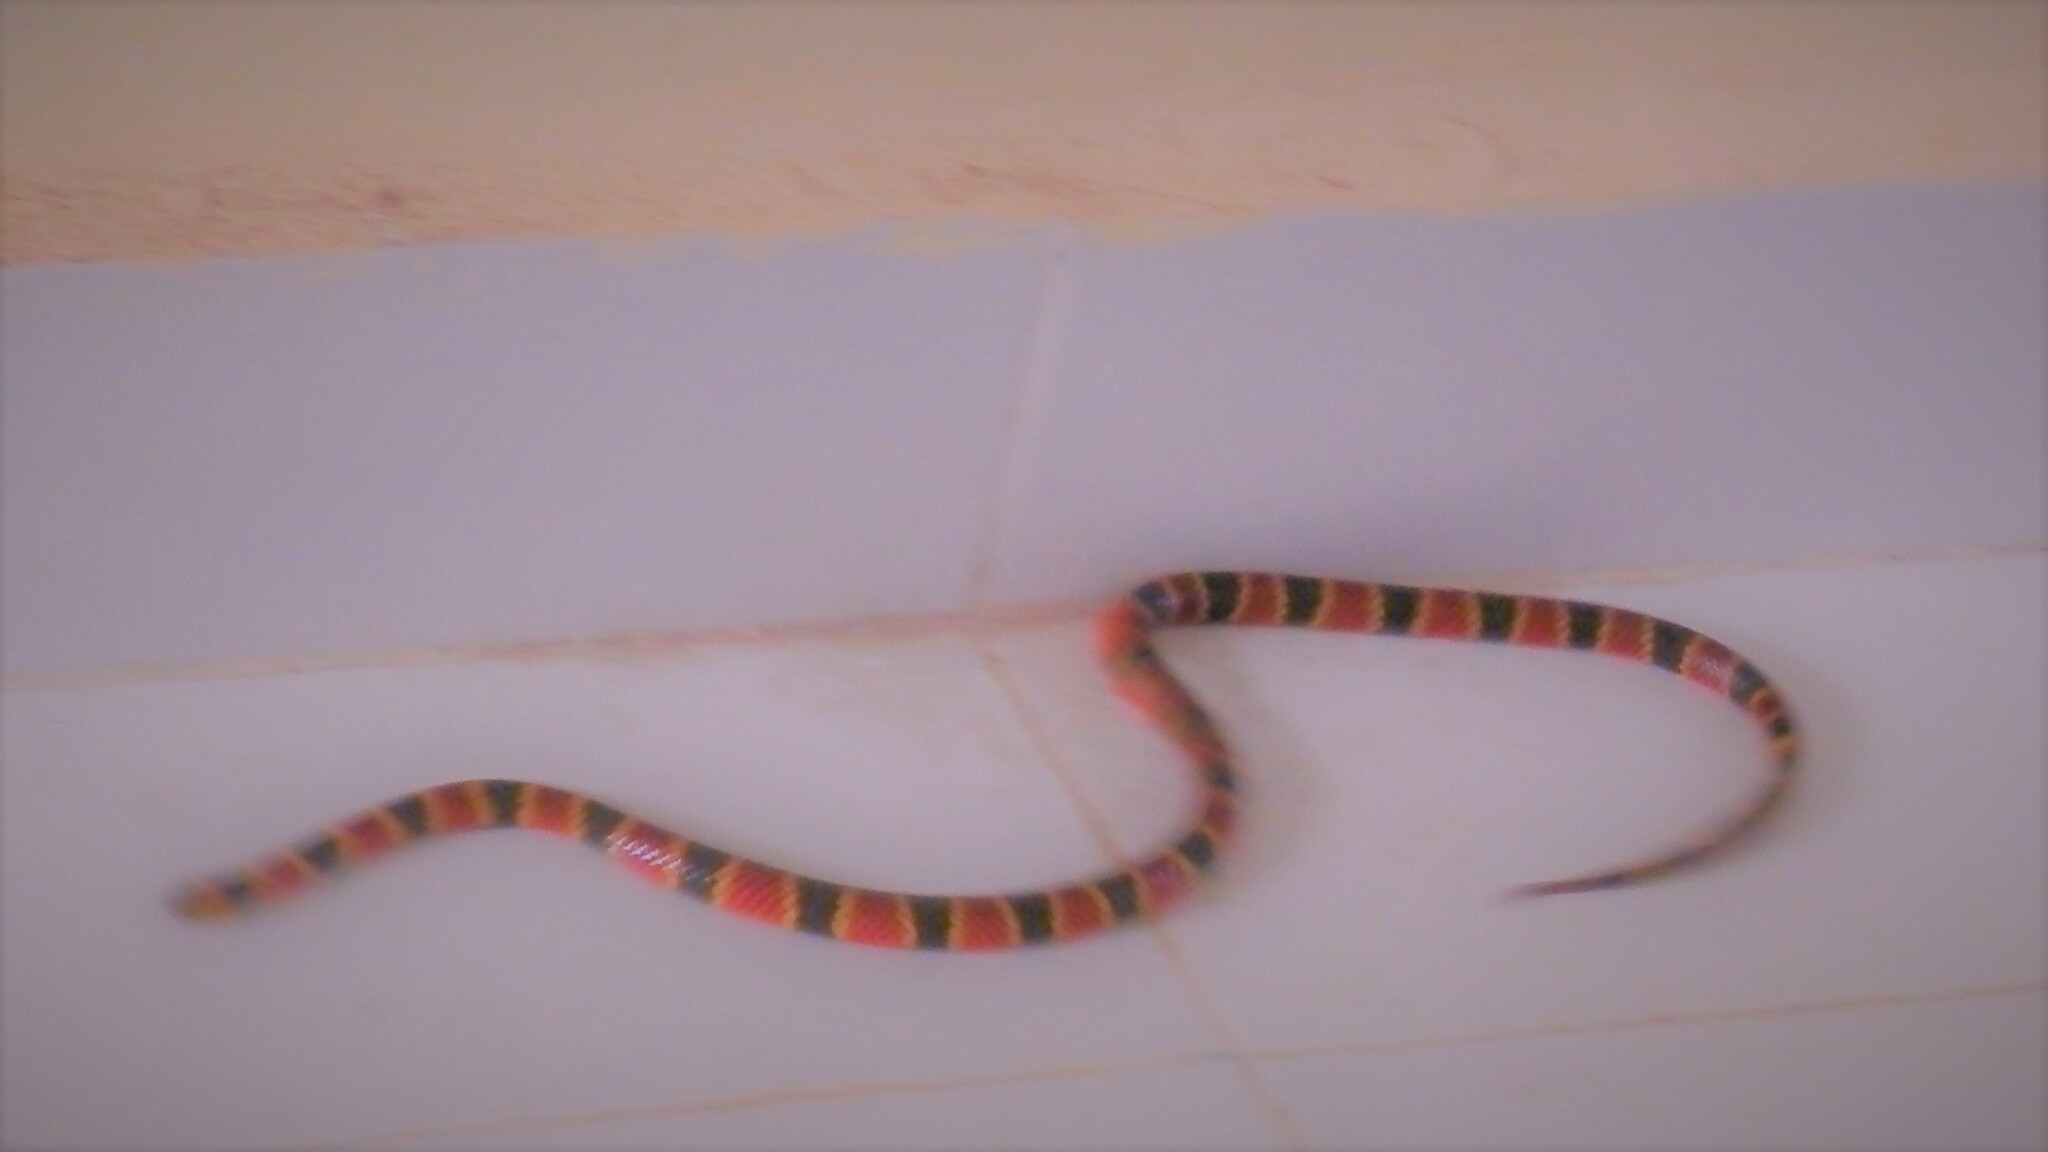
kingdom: Animalia
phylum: Chordata
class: Squamata
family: Elapidae
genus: Micrurus
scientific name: Micrurus nigrocinctus
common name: Babaspul [babaspul]
